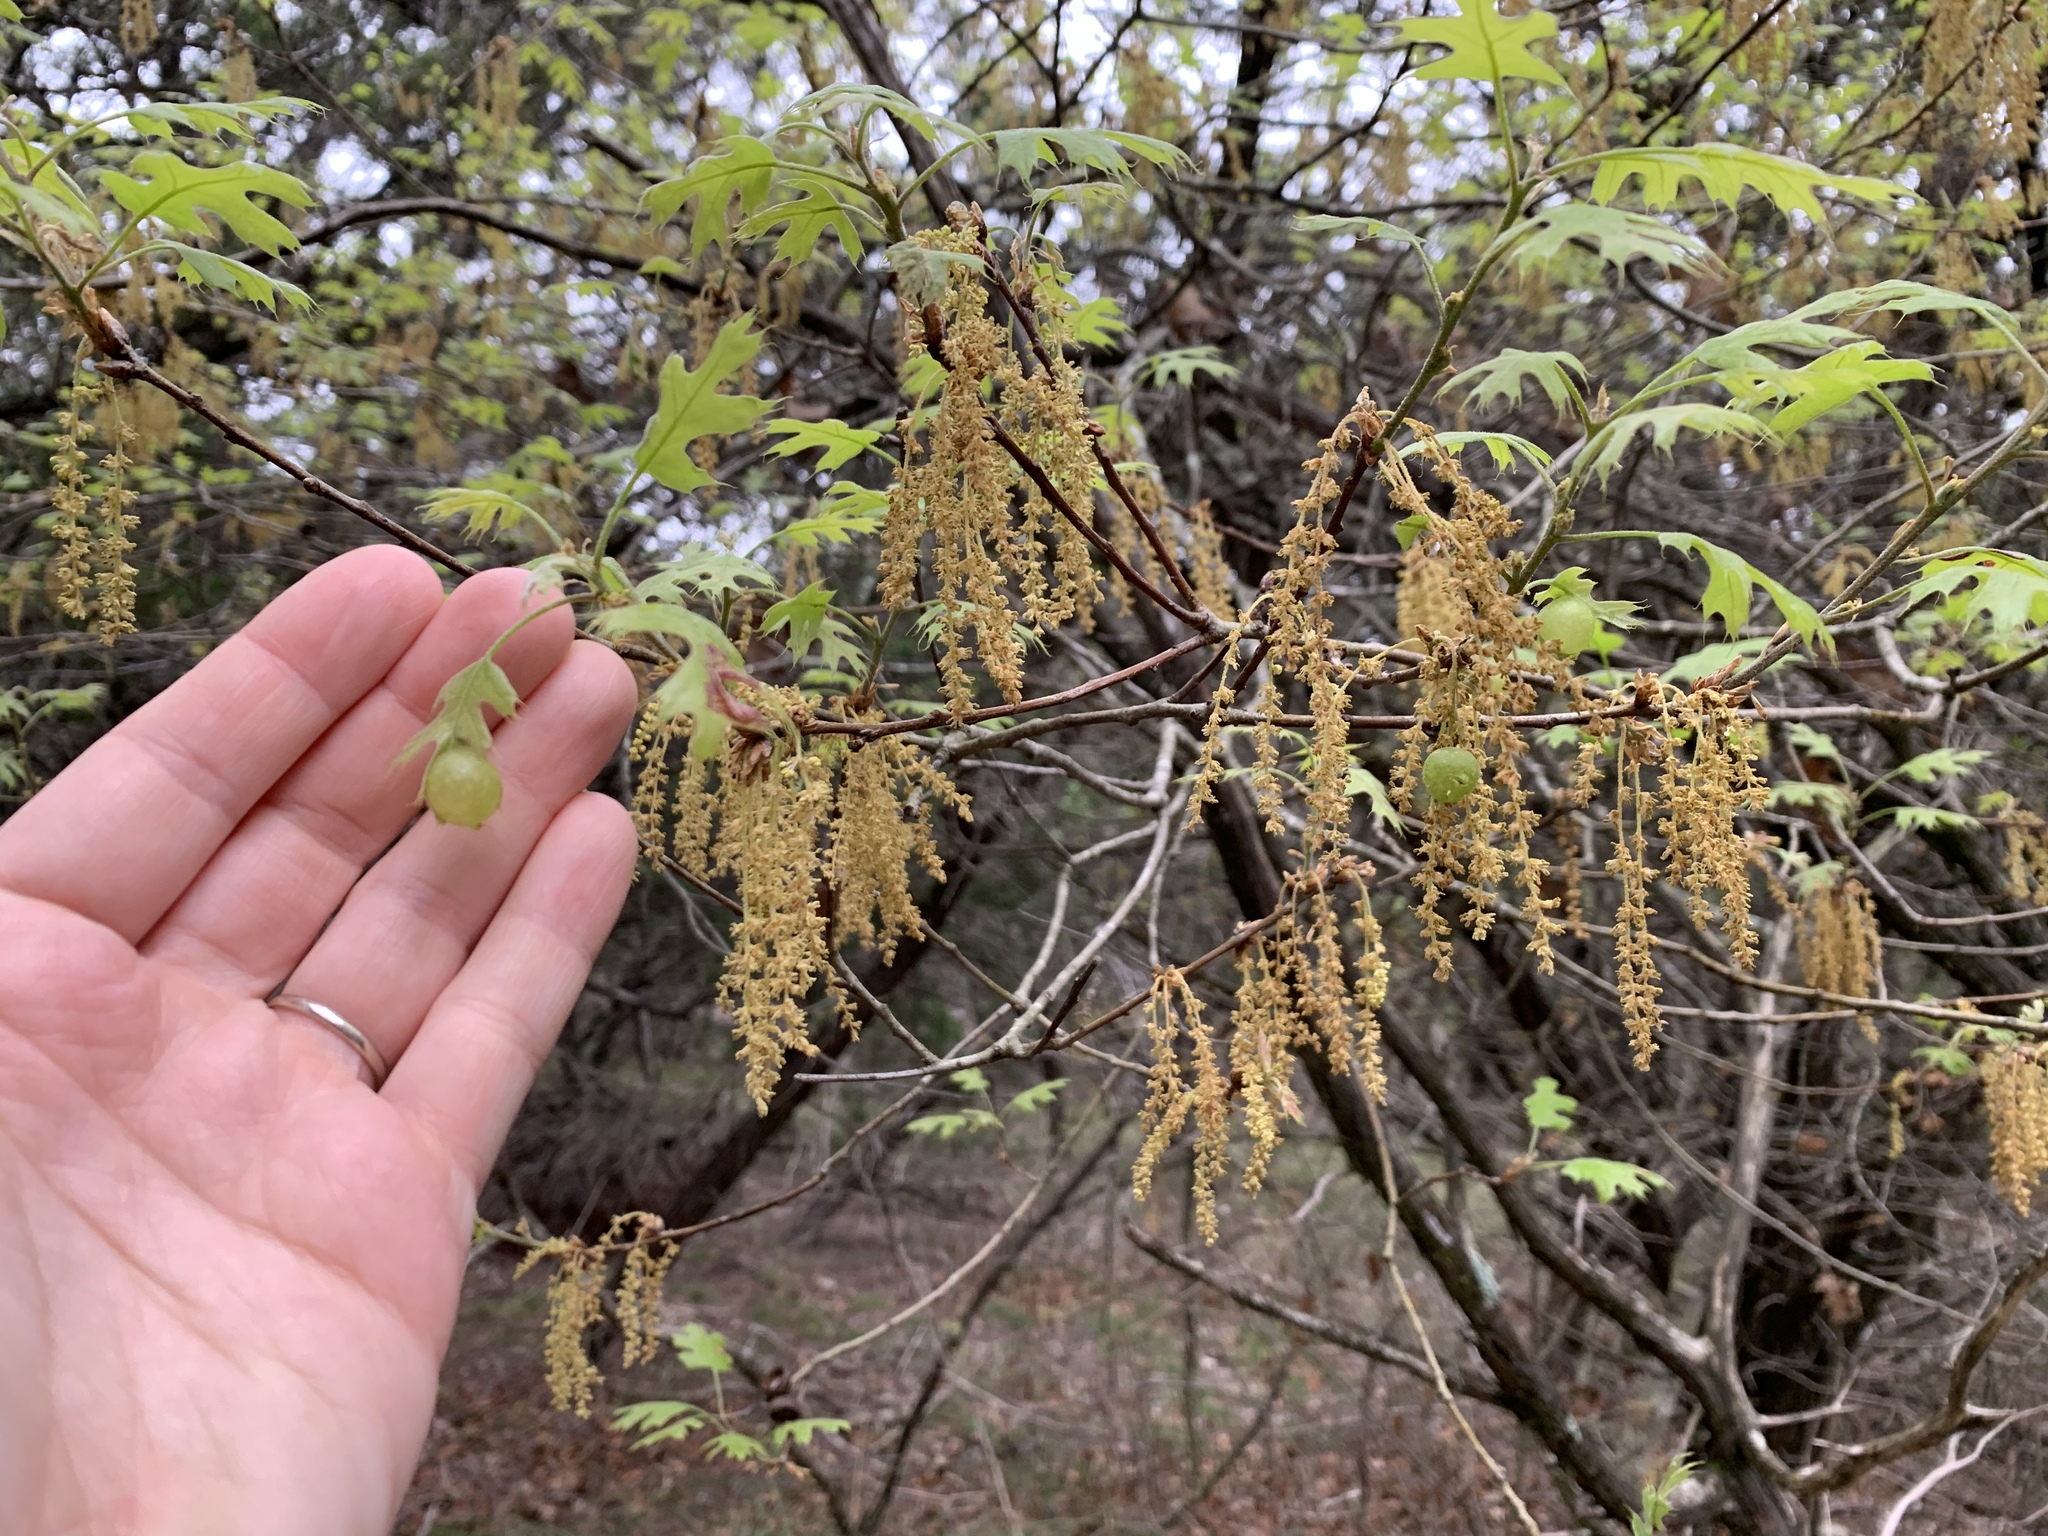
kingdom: Animalia
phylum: Arthropoda
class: Insecta
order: Hymenoptera
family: Cynipidae
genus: Amphibolips
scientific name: Amphibolips
